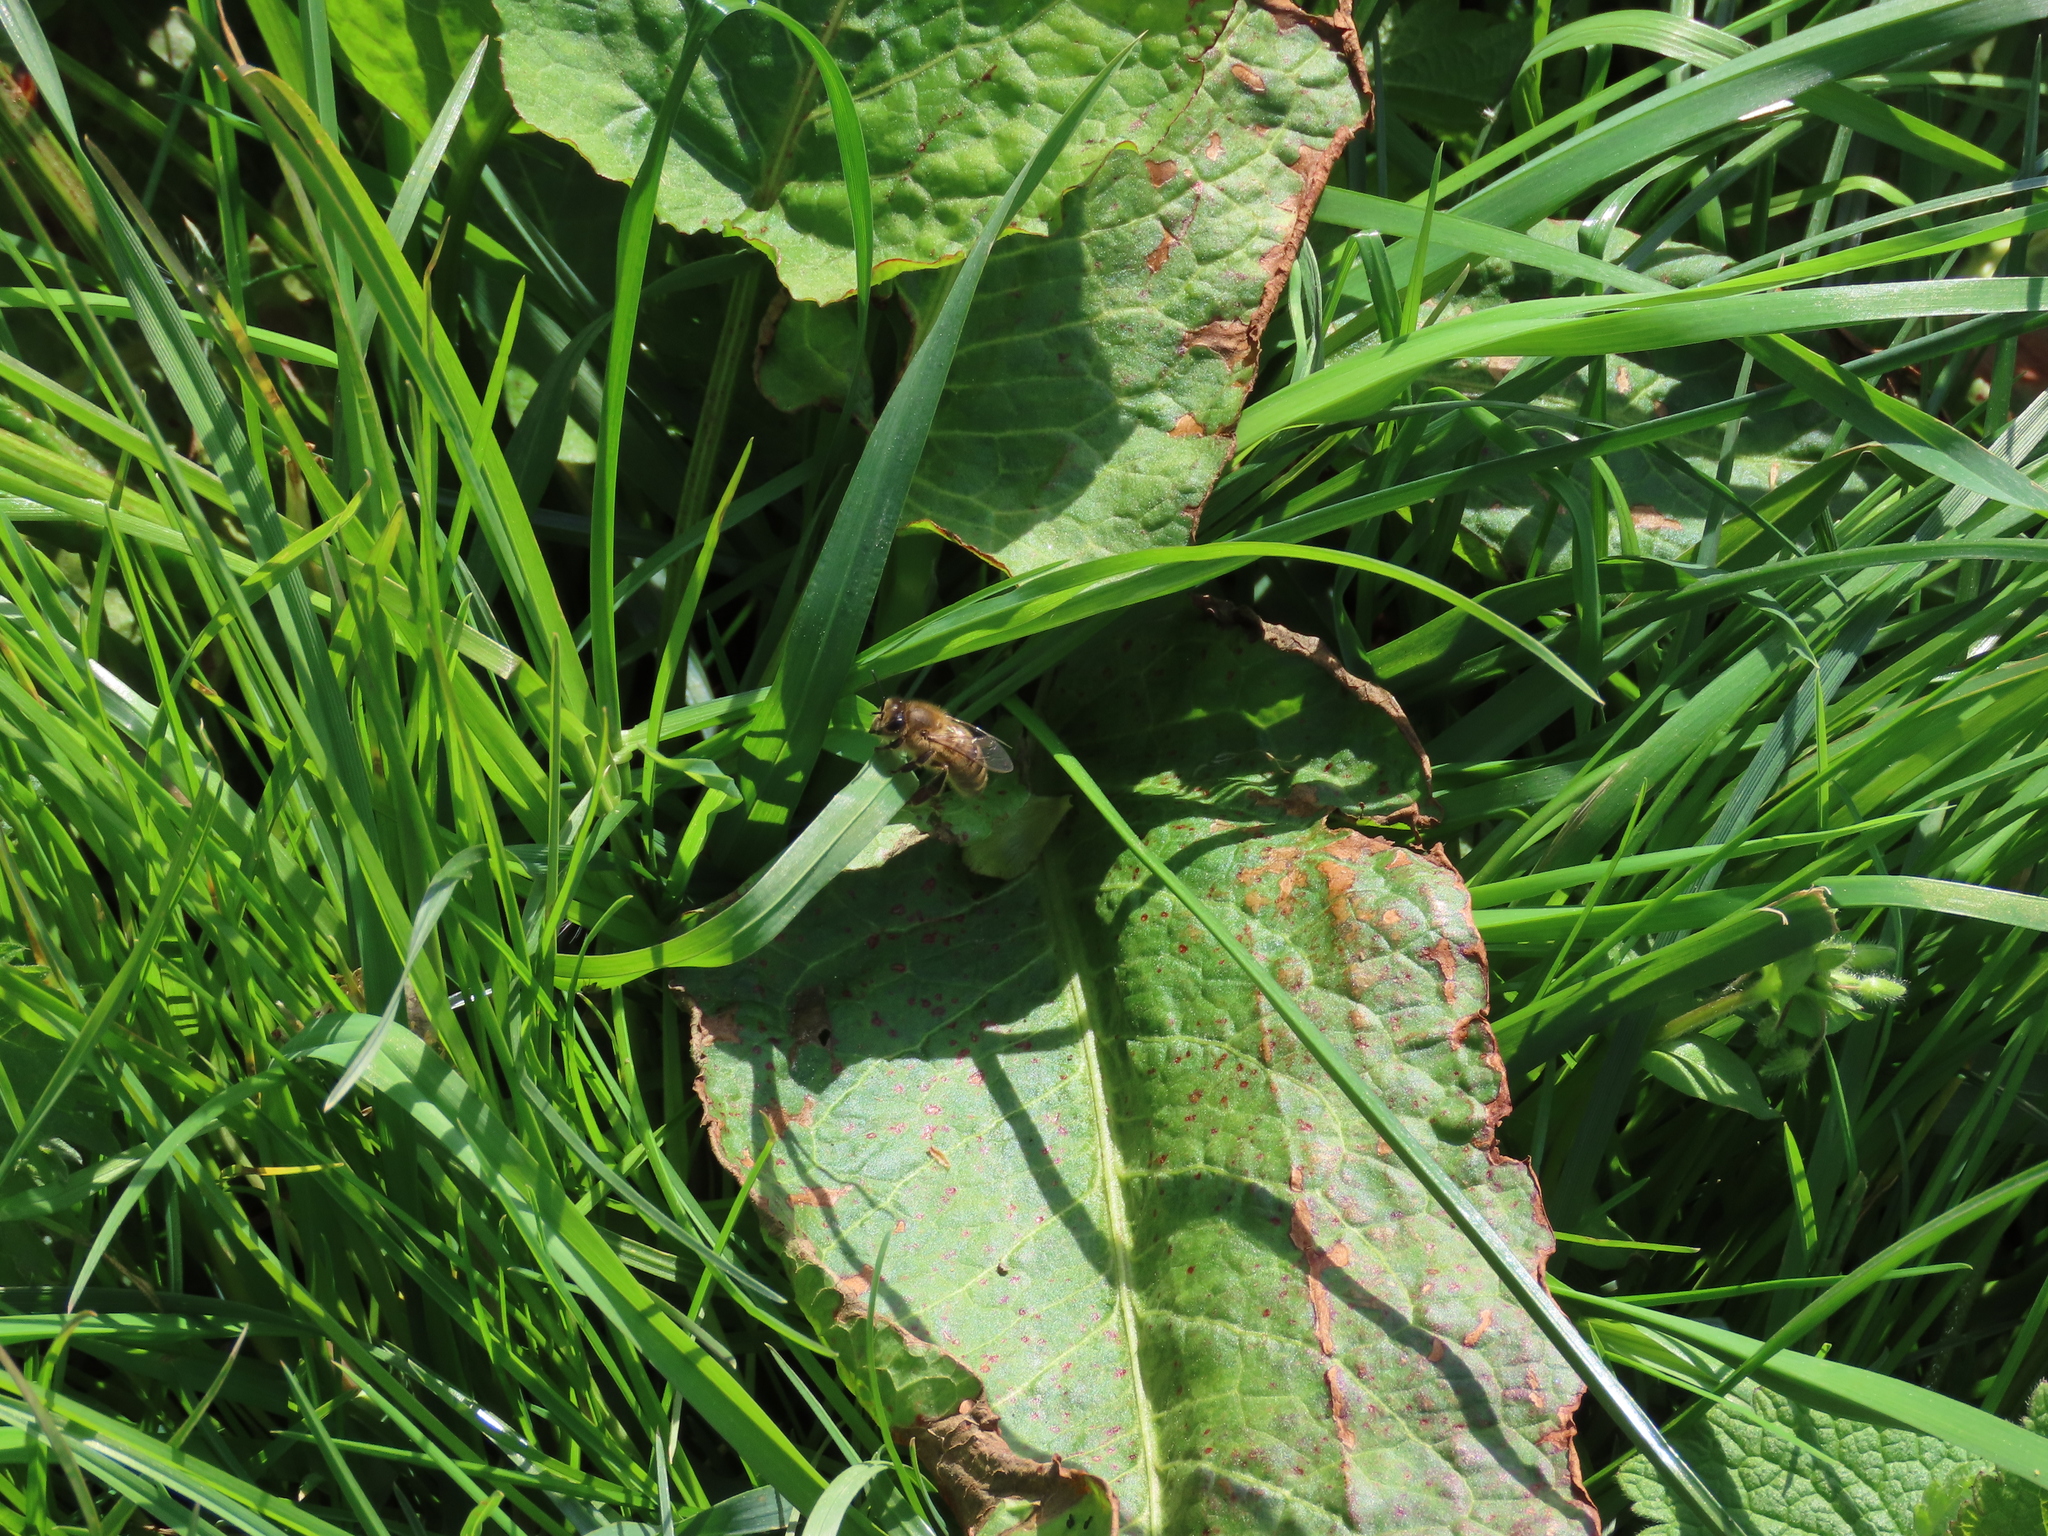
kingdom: Animalia
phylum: Arthropoda
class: Insecta
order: Hymenoptera
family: Apidae
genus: Apis
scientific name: Apis mellifera
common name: Honey bee
